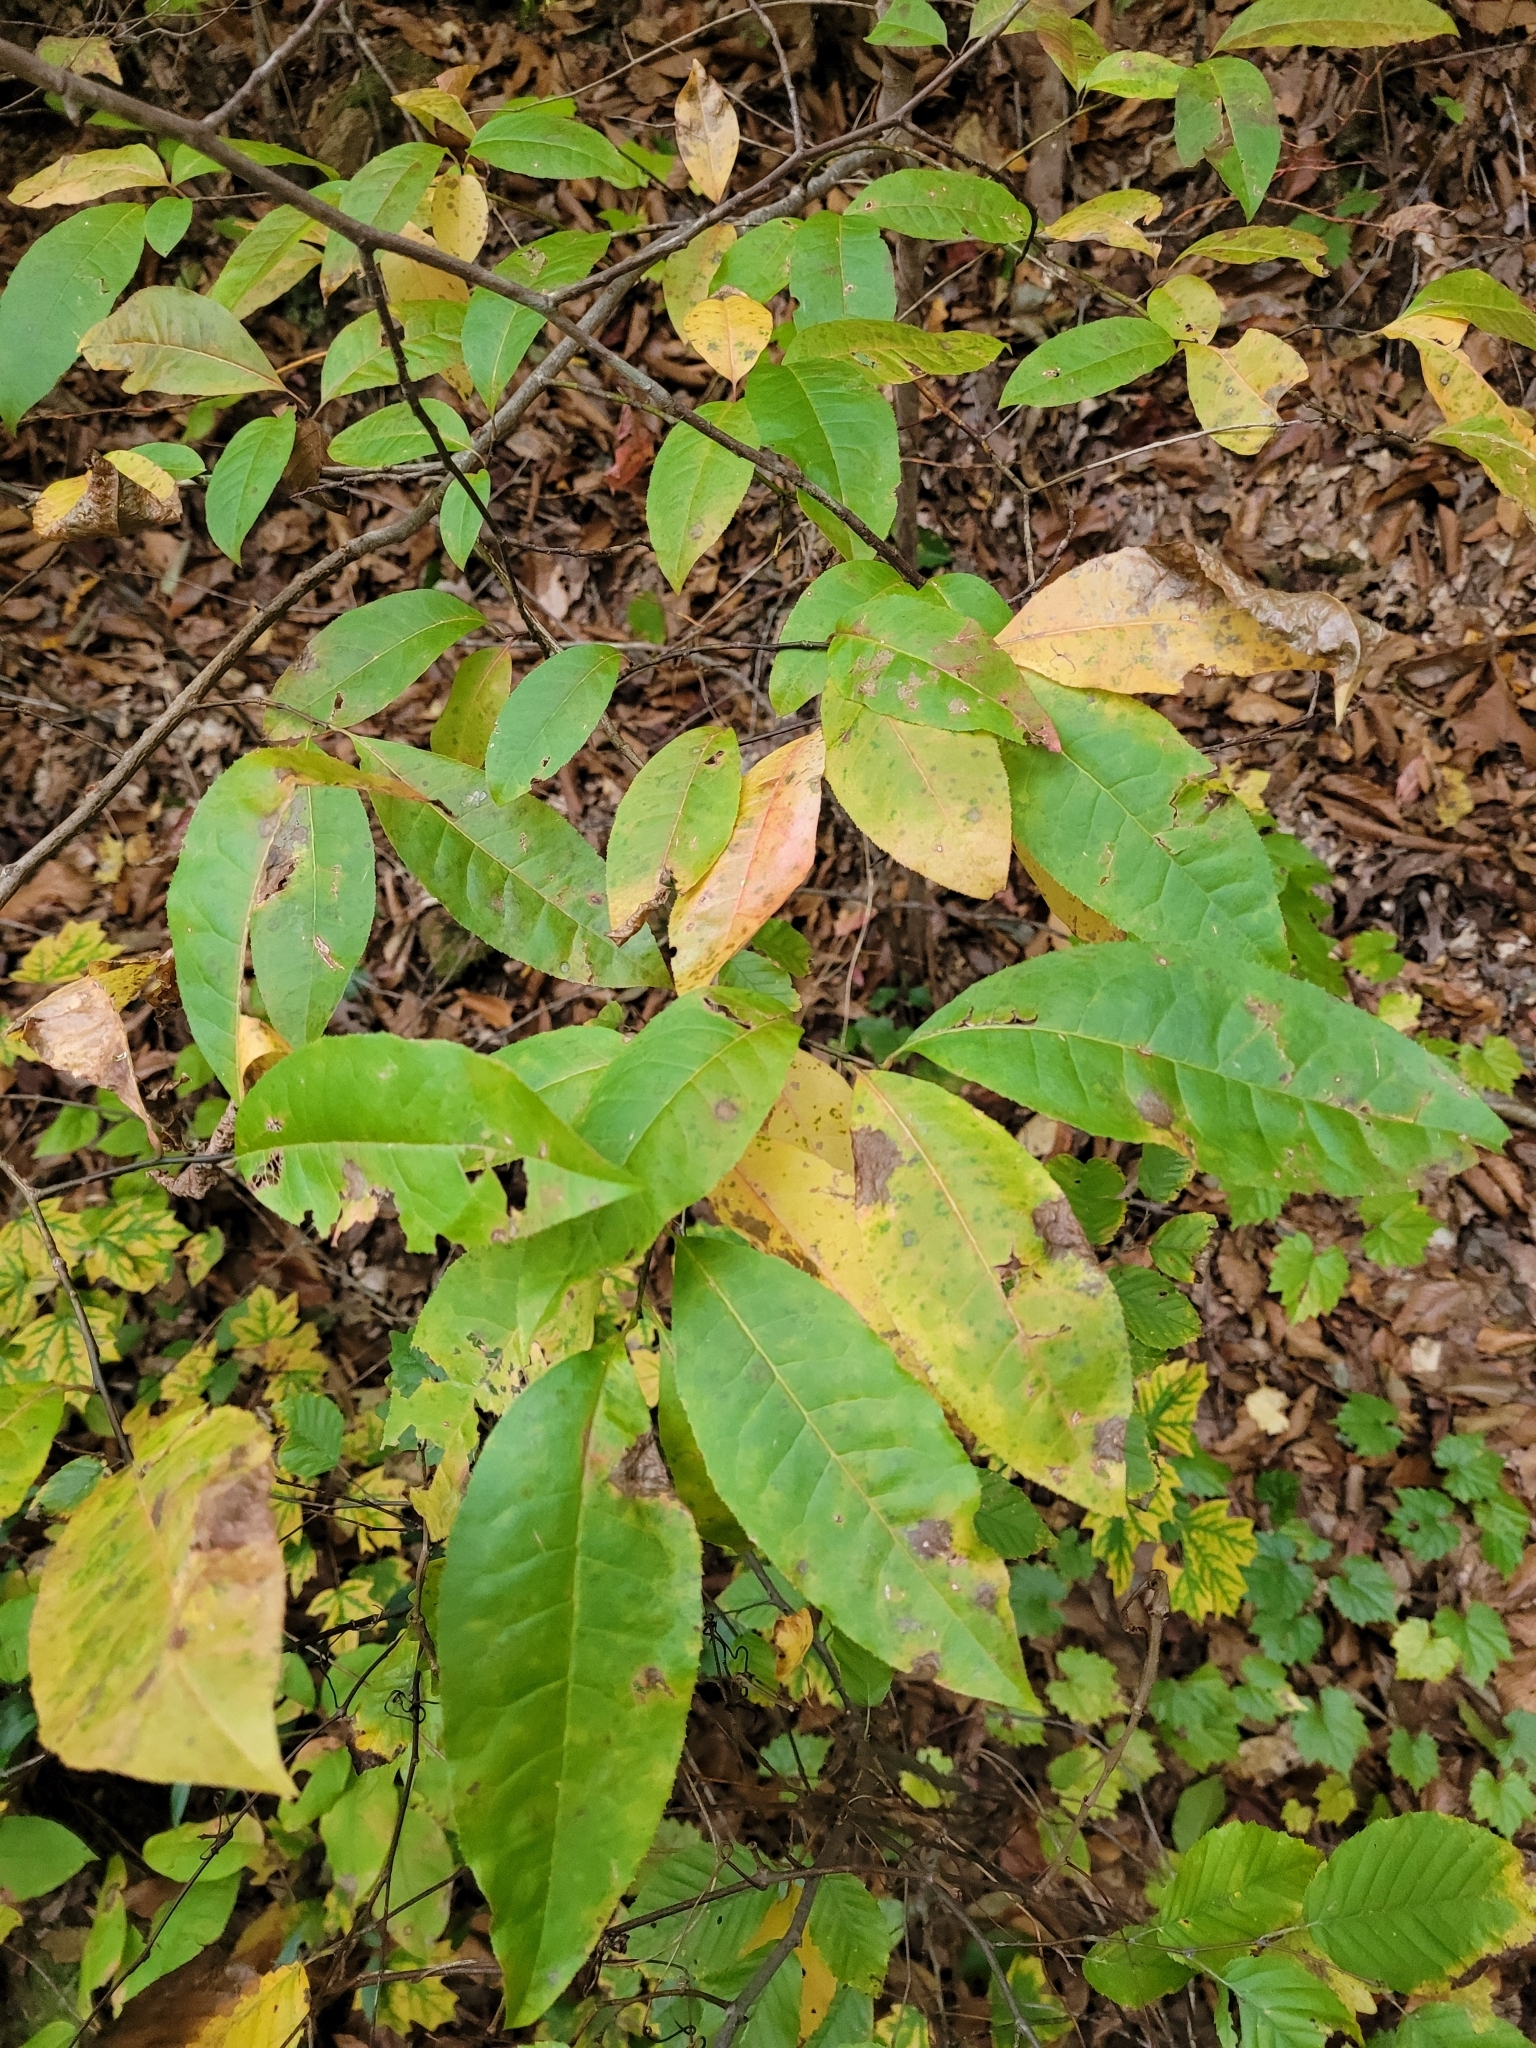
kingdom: Plantae
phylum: Tracheophyta
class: Magnoliopsida
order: Ericales
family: Ericaceae
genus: Oxydendrum
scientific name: Oxydendrum arboreum
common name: Sourwood
